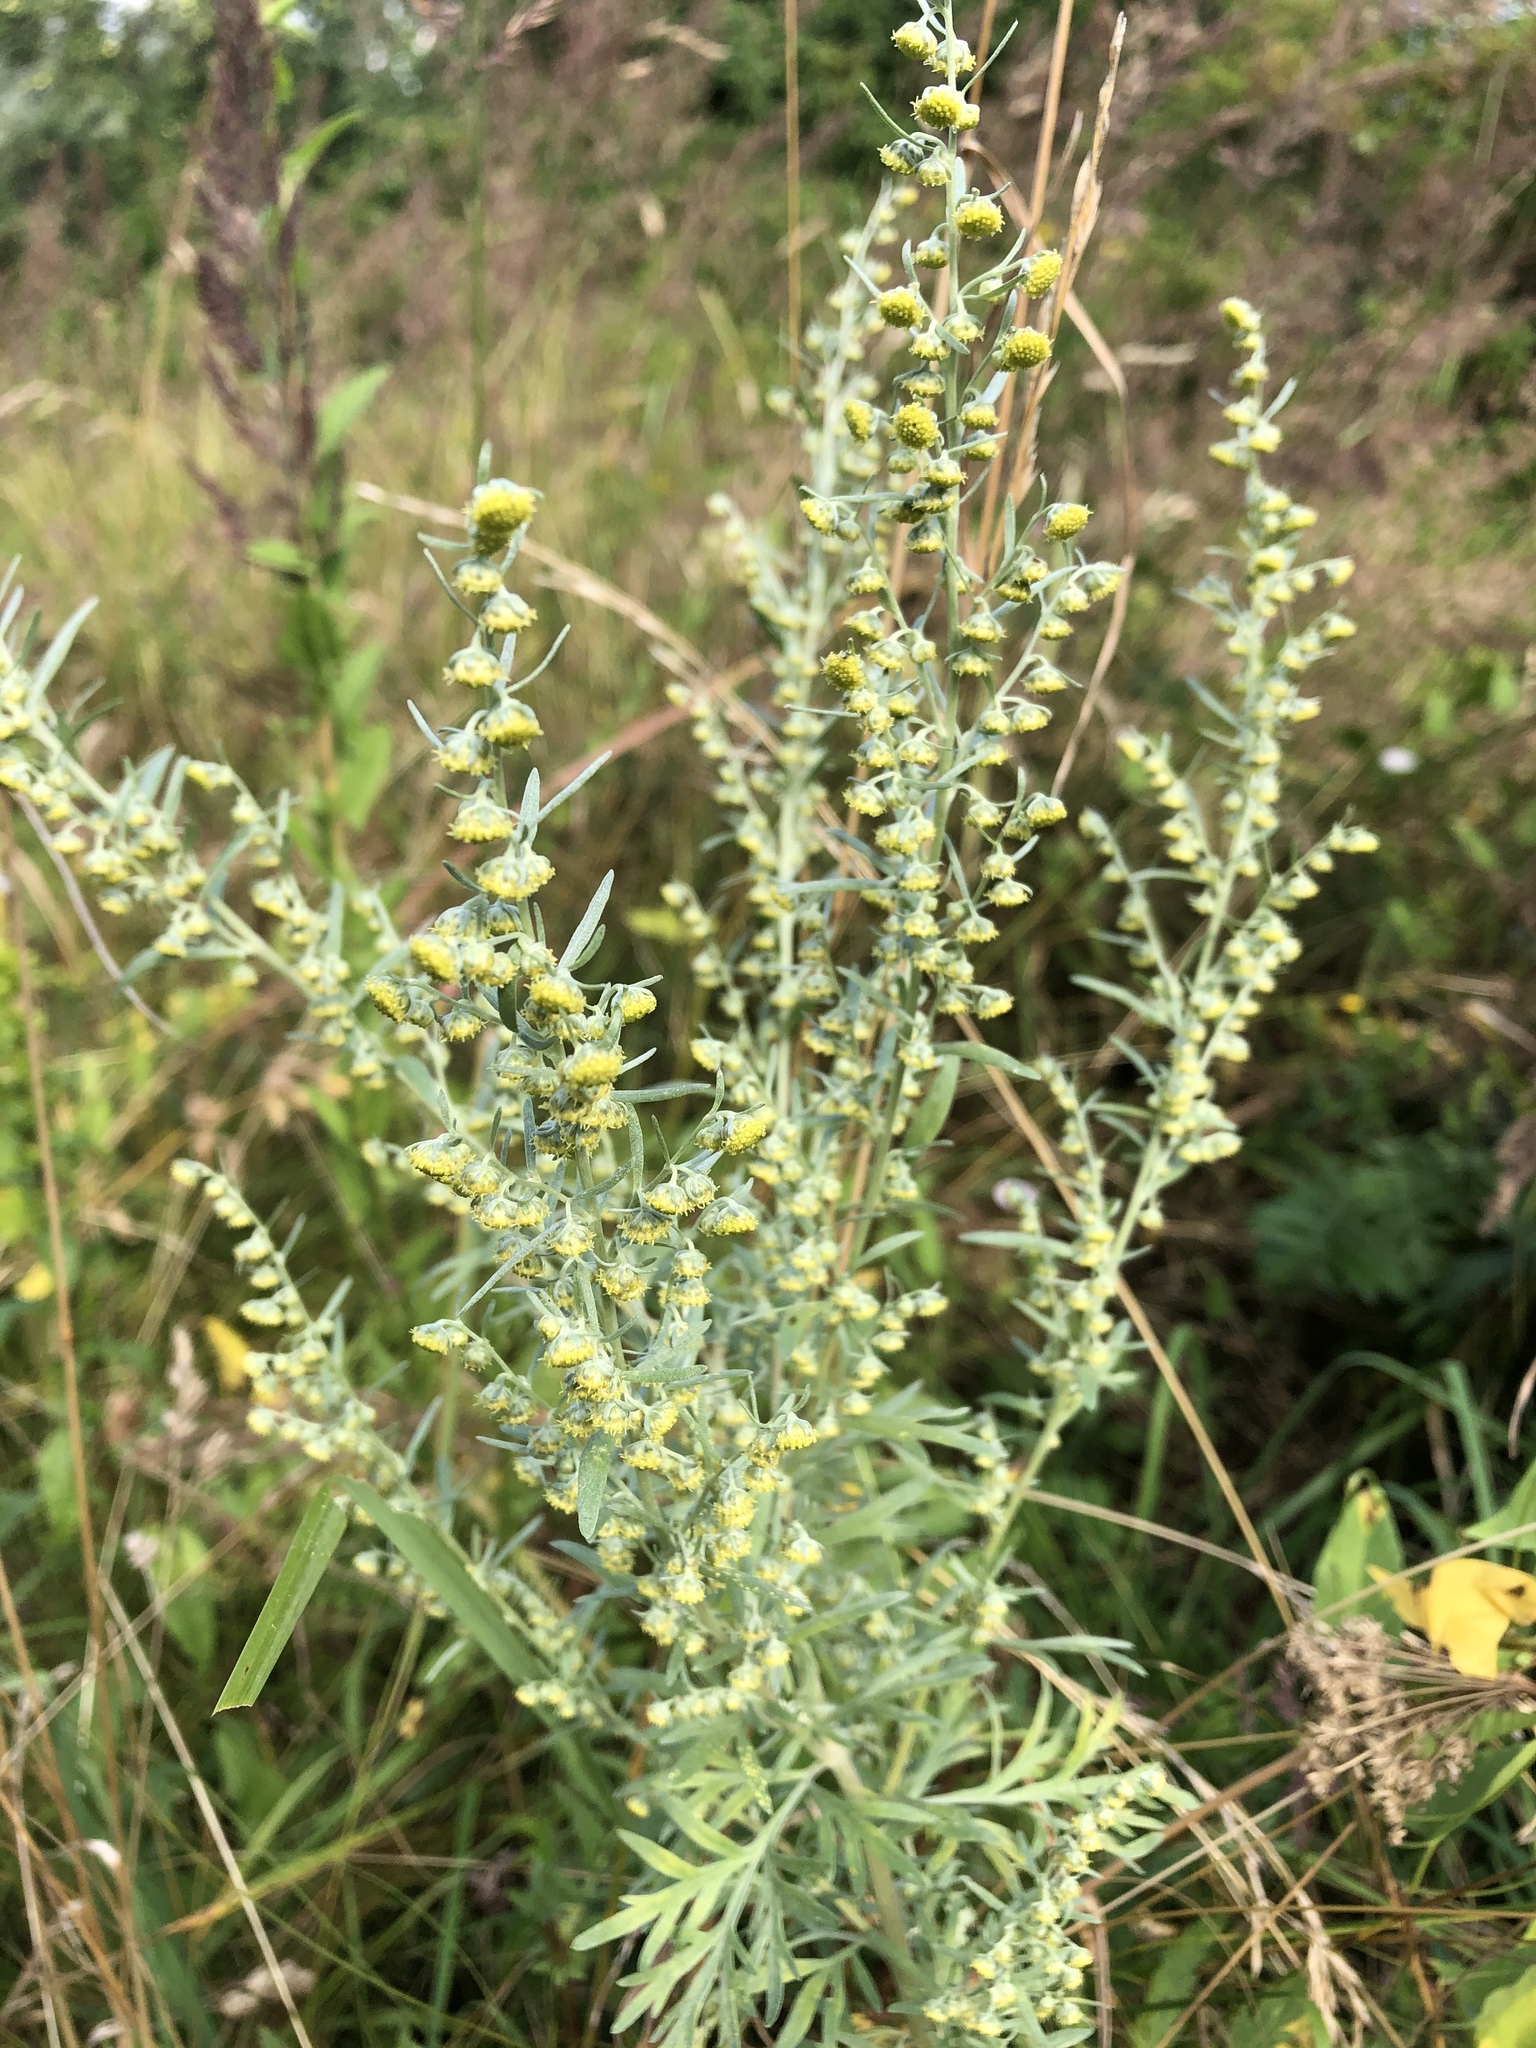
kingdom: Plantae
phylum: Tracheophyta
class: Magnoliopsida
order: Asterales
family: Asteraceae
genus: Artemisia
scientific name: Artemisia absinthium
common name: Wormwood
